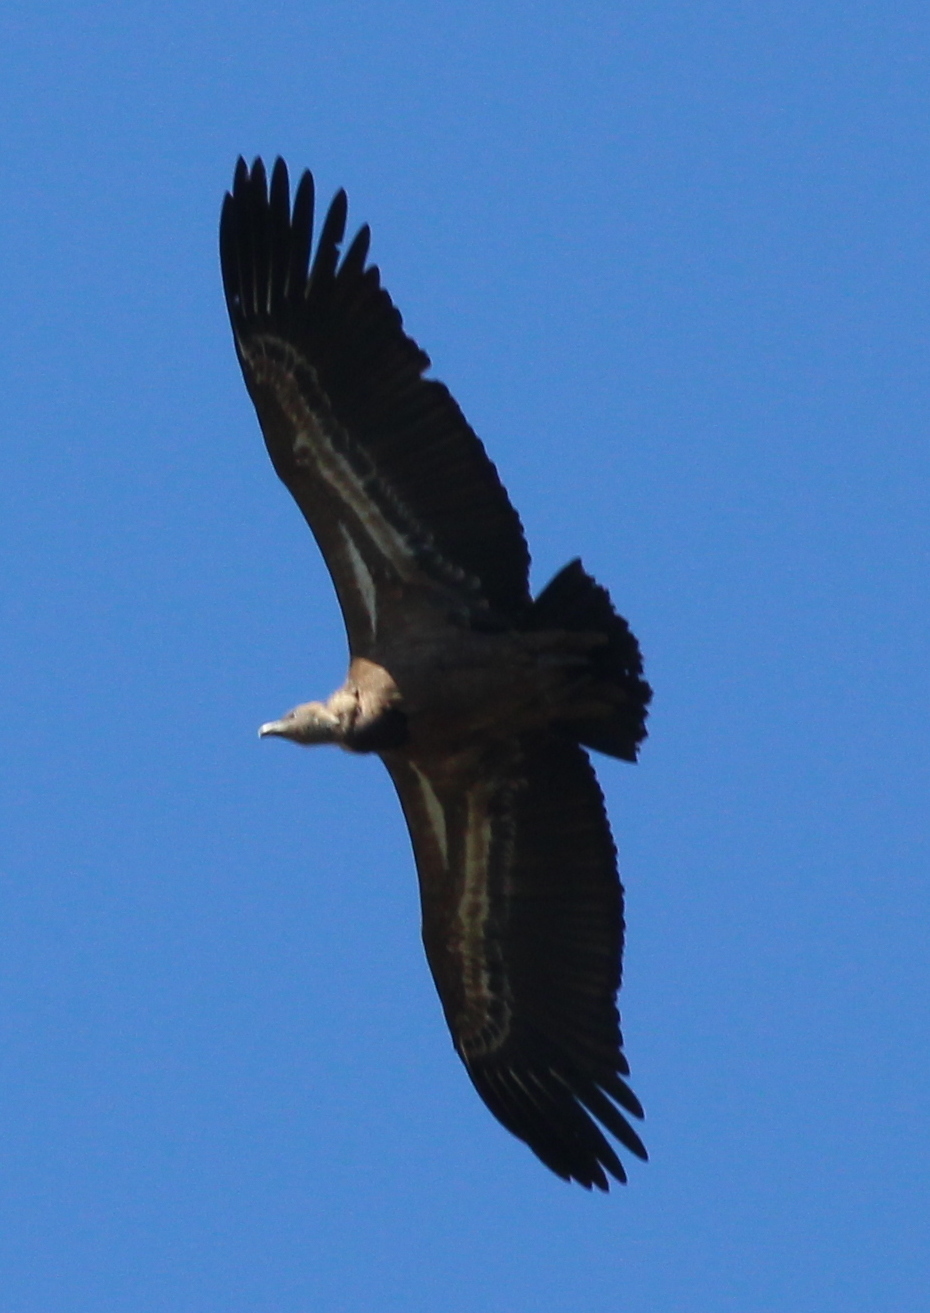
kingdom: Animalia
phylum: Chordata
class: Aves
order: Accipitriformes
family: Accipitridae
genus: Gyps
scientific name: Gyps fulvus
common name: Griffon vulture
